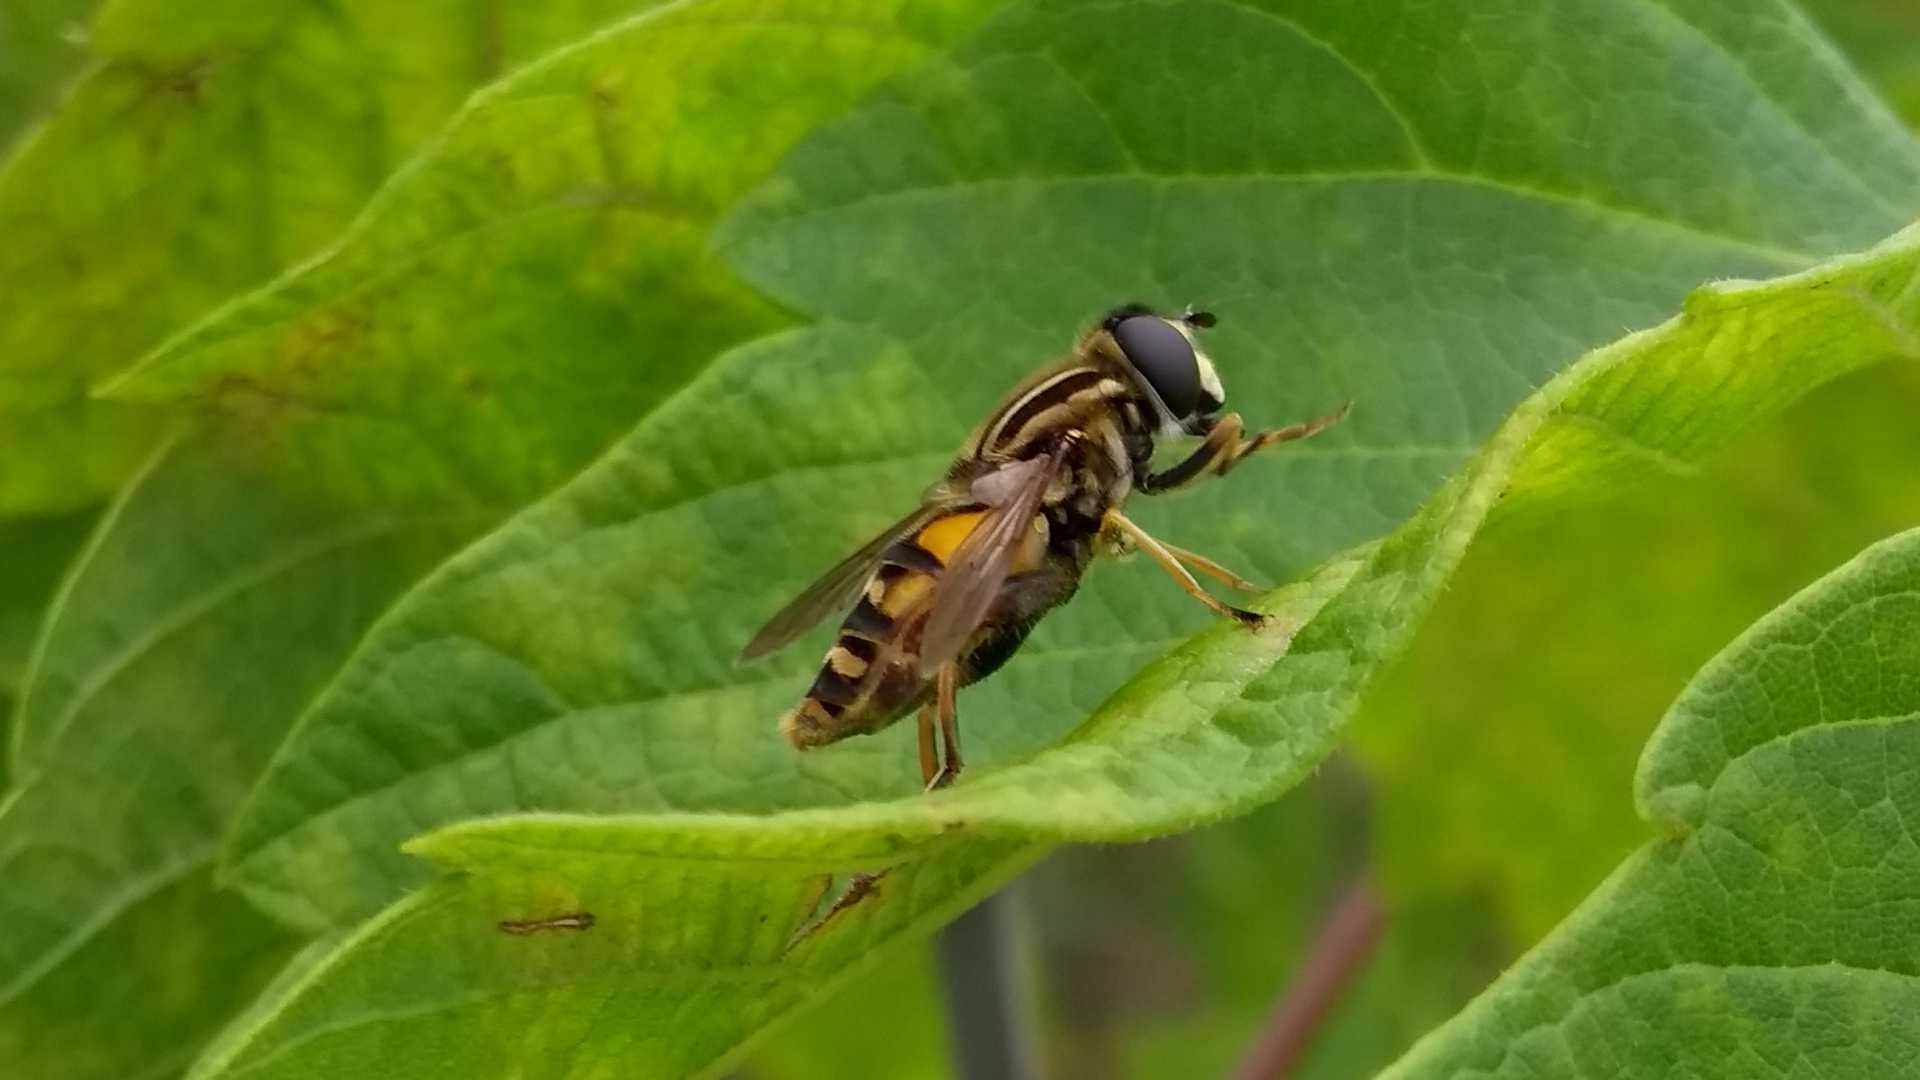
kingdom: Animalia
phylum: Arthropoda
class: Insecta
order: Diptera
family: Syrphidae
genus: Helophilus
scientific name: Helophilus pendulus
